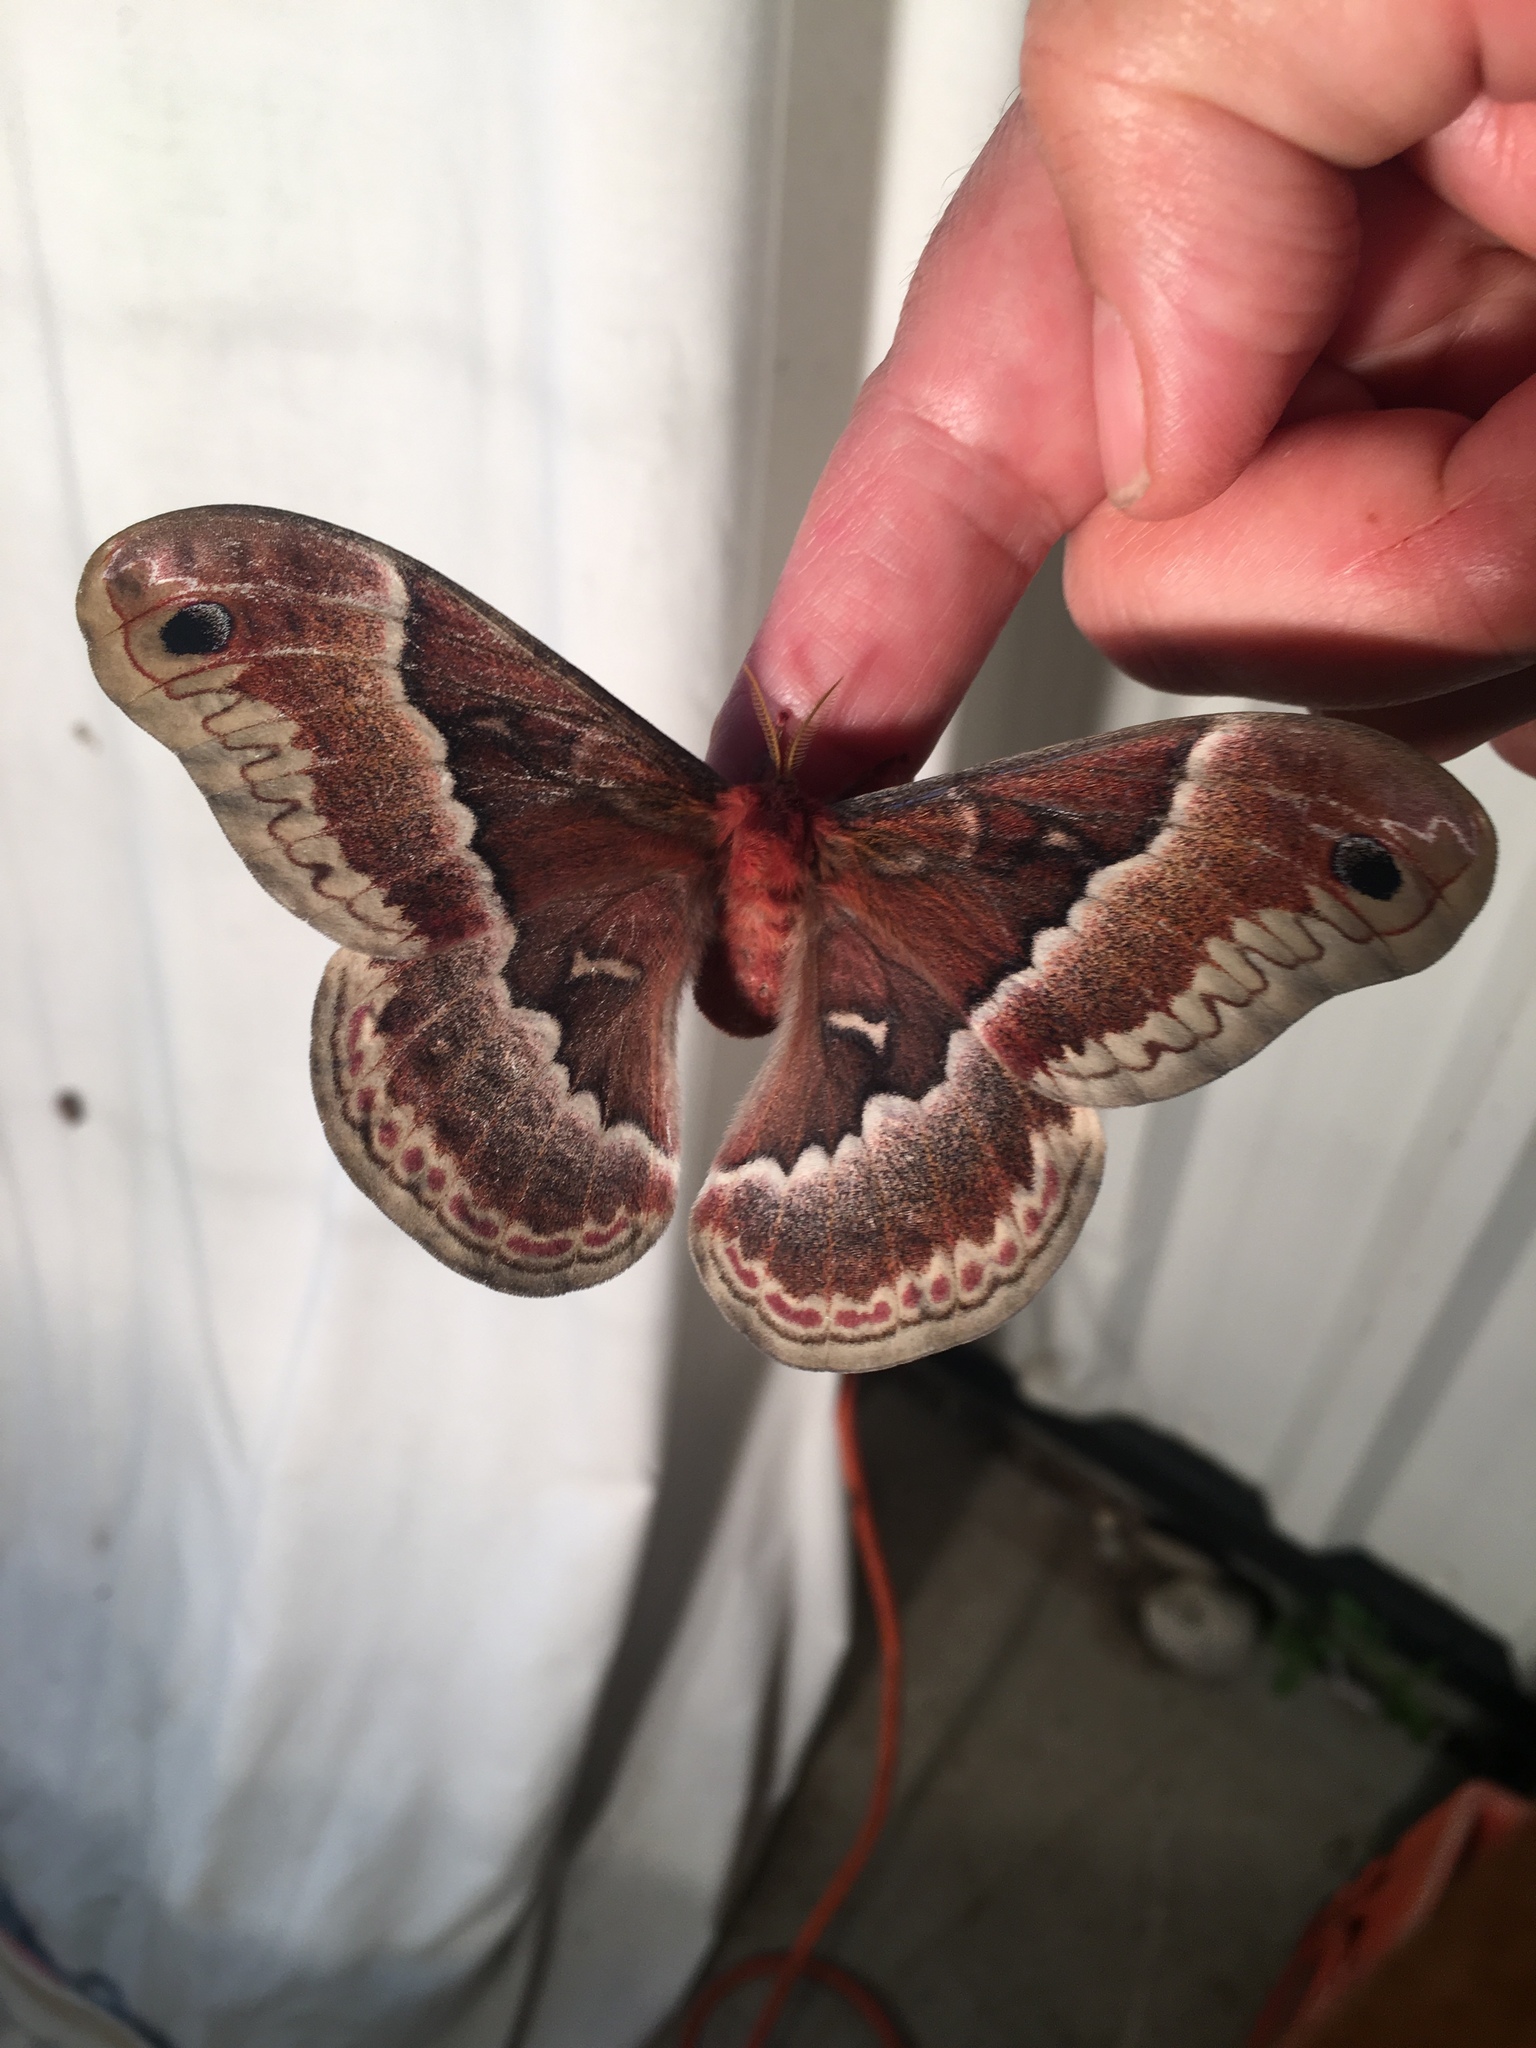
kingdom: Animalia
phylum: Arthropoda
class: Insecta
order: Lepidoptera
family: Saturniidae
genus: Callosamia
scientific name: Callosamia promethea
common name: Promethea silkmoth
